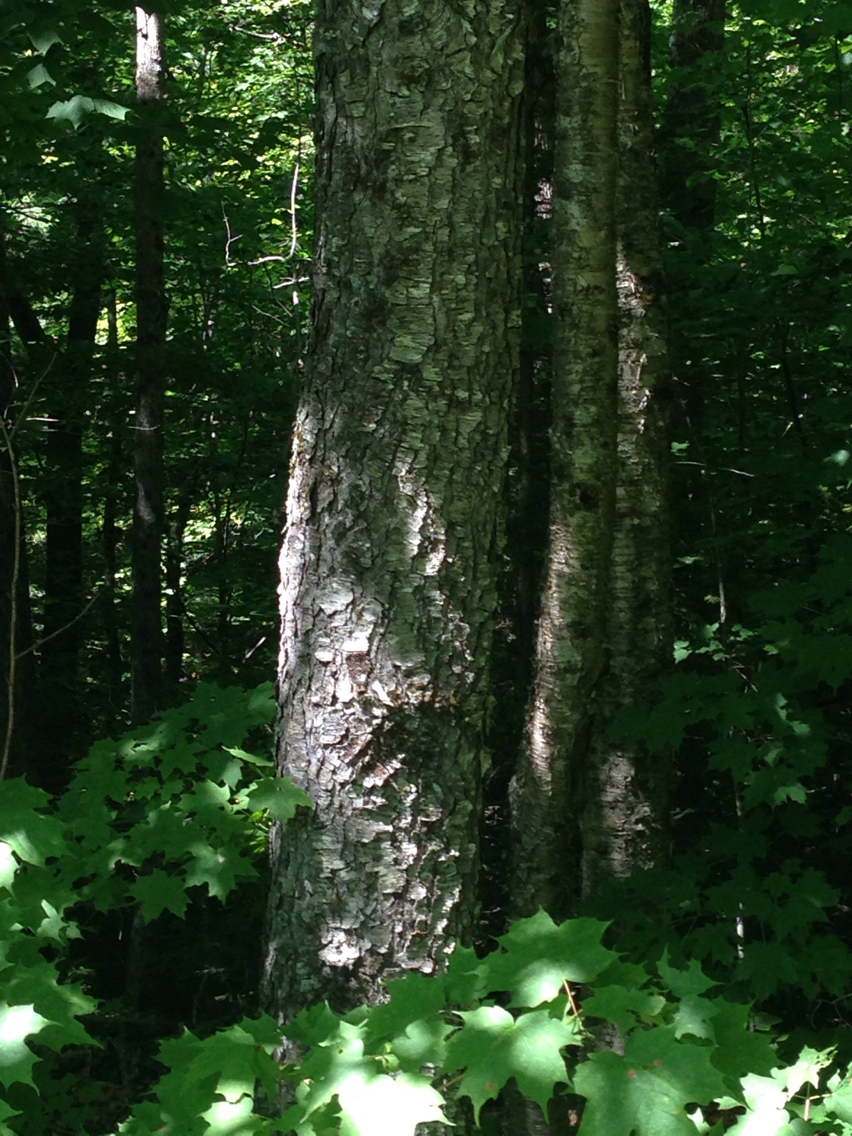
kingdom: Plantae
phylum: Tracheophyta
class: Magnoliopsida
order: Rosales
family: Rosaceae
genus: Prunus
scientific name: Prunus serotina
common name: Black cherry
